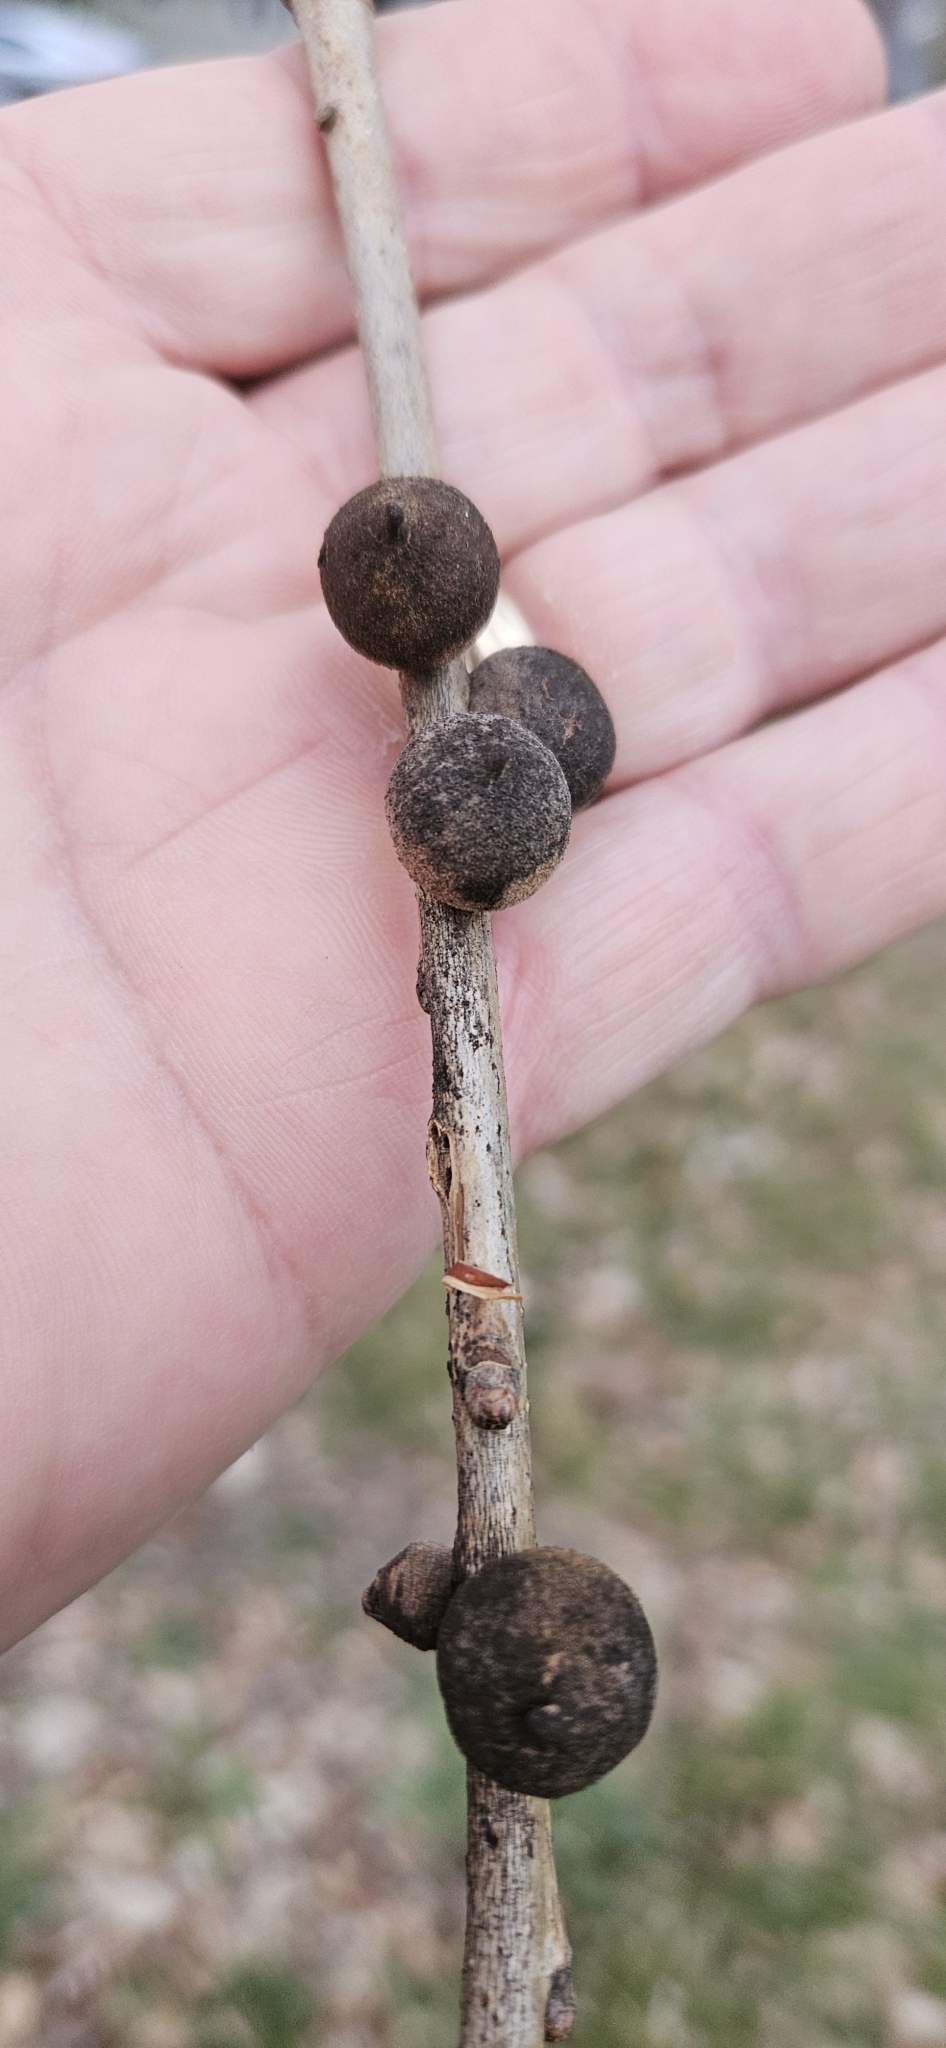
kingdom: Animalia
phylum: Arthropoda
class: Insecta
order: Hymenoptera
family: Cynipidae
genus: Disholcaspis
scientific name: Disholcaspis
